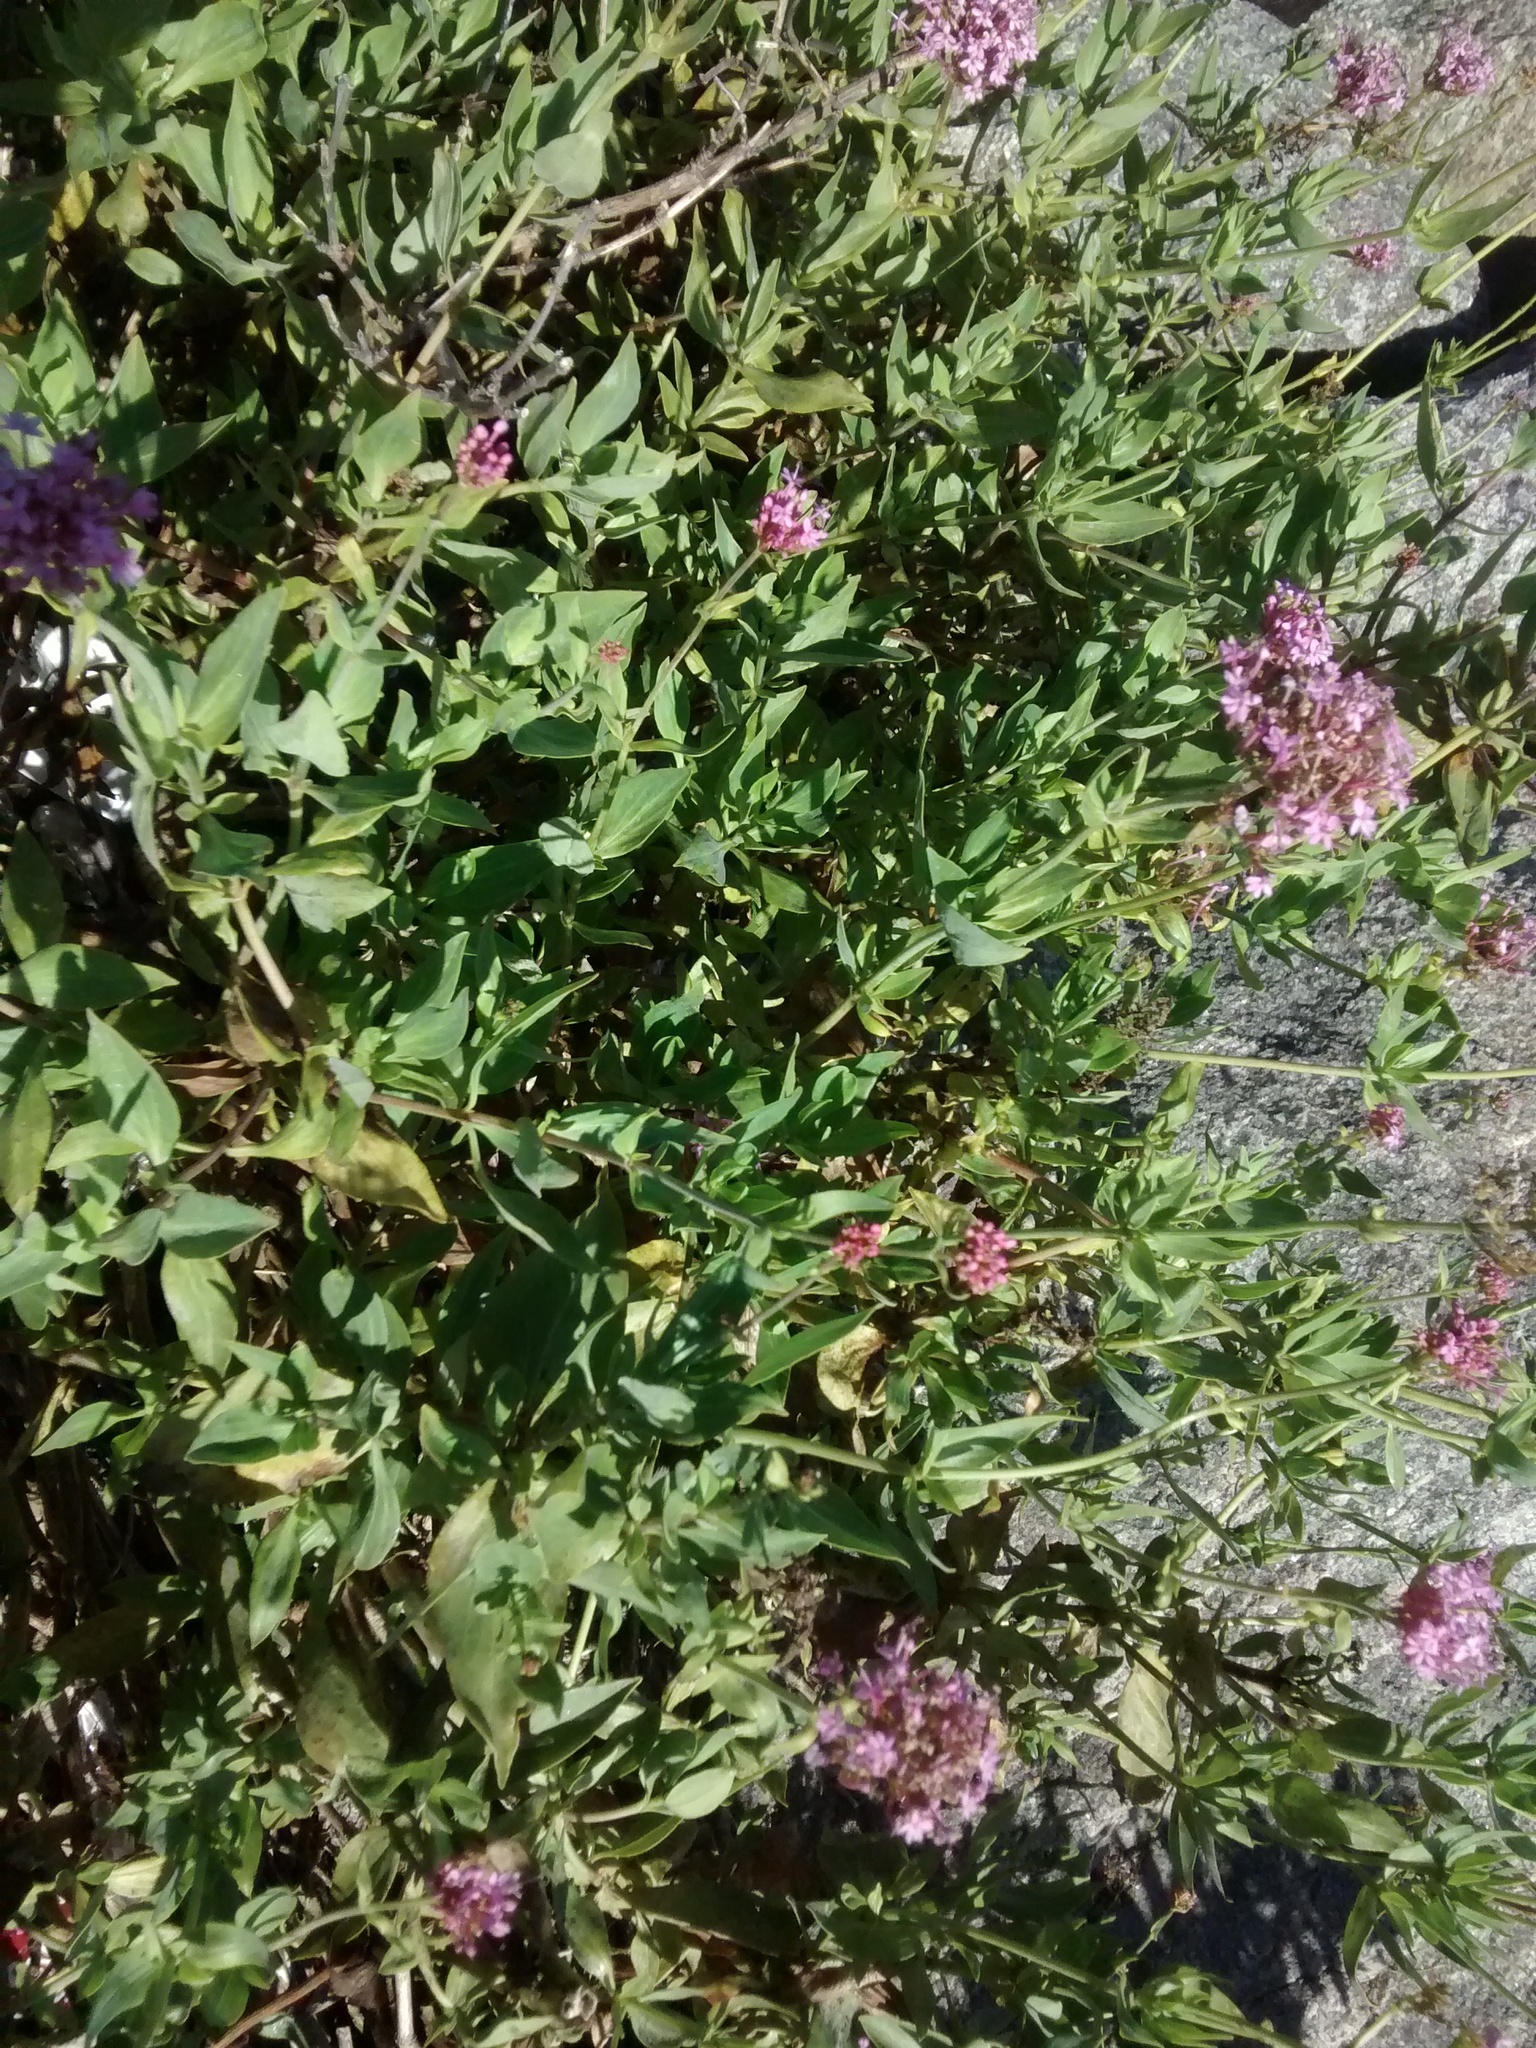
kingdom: Plantae
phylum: Tracheophyta
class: Magnoliopsida
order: Dipsacales
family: Caprifoliaceae
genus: Centranthus
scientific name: Centranthus ruber
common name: Red valerian
